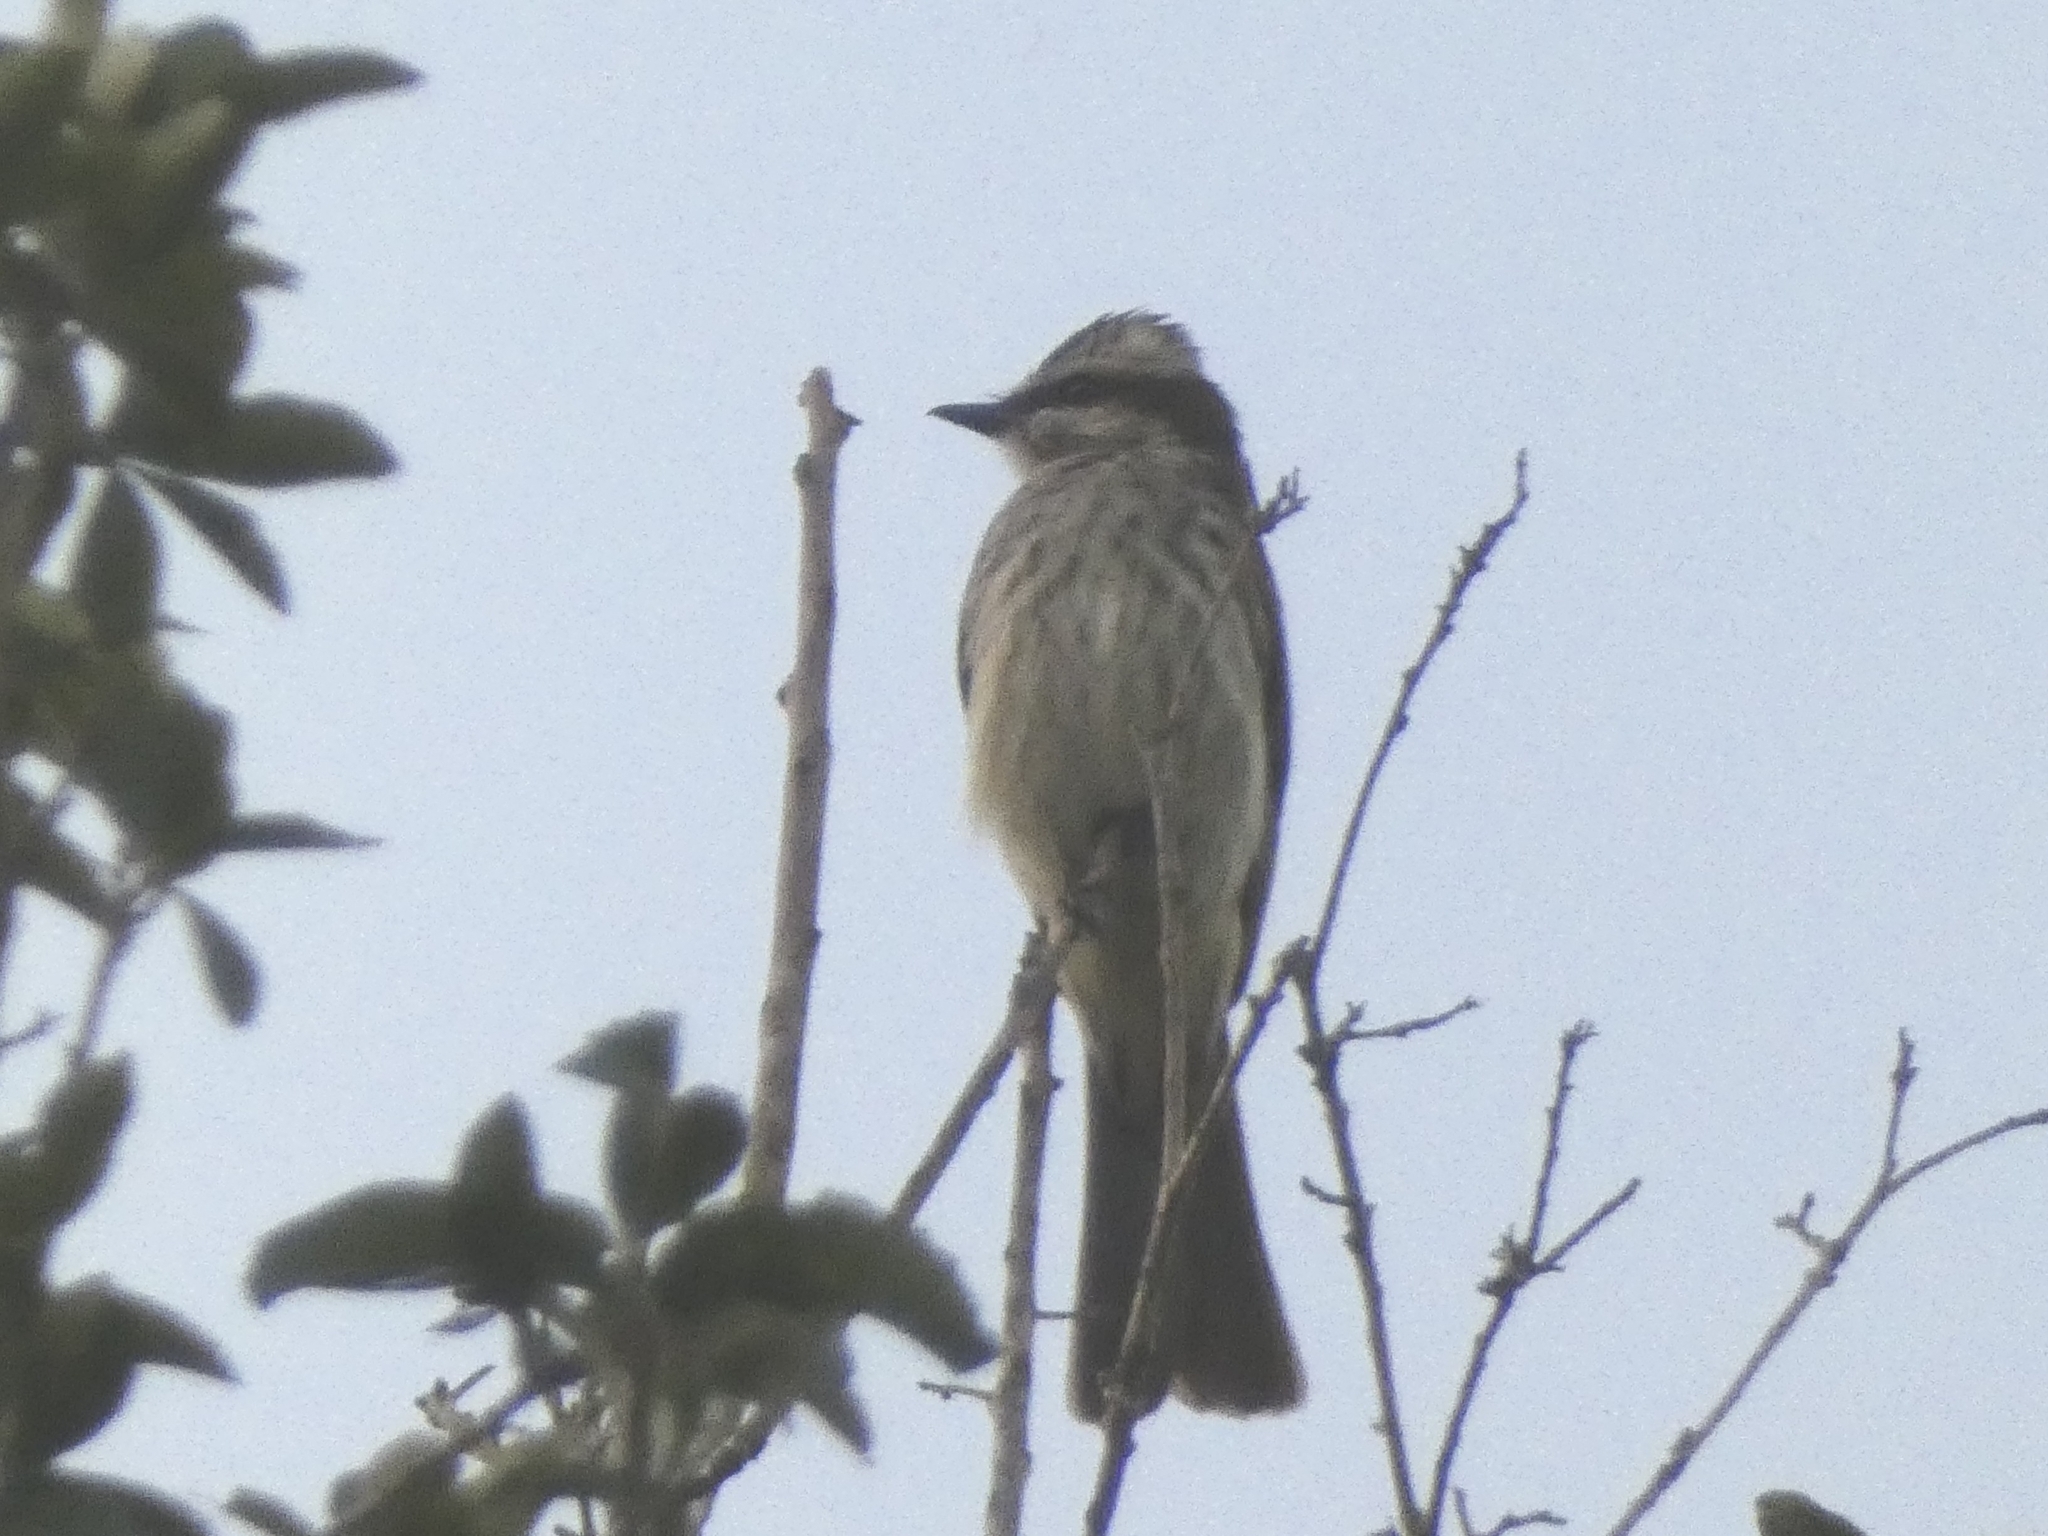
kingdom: Animalia
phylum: Chordata
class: Aves
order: Passeriformes
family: Tyrannidae
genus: Empidonomus
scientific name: Empidonomus varius
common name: Variegated flycatcher
